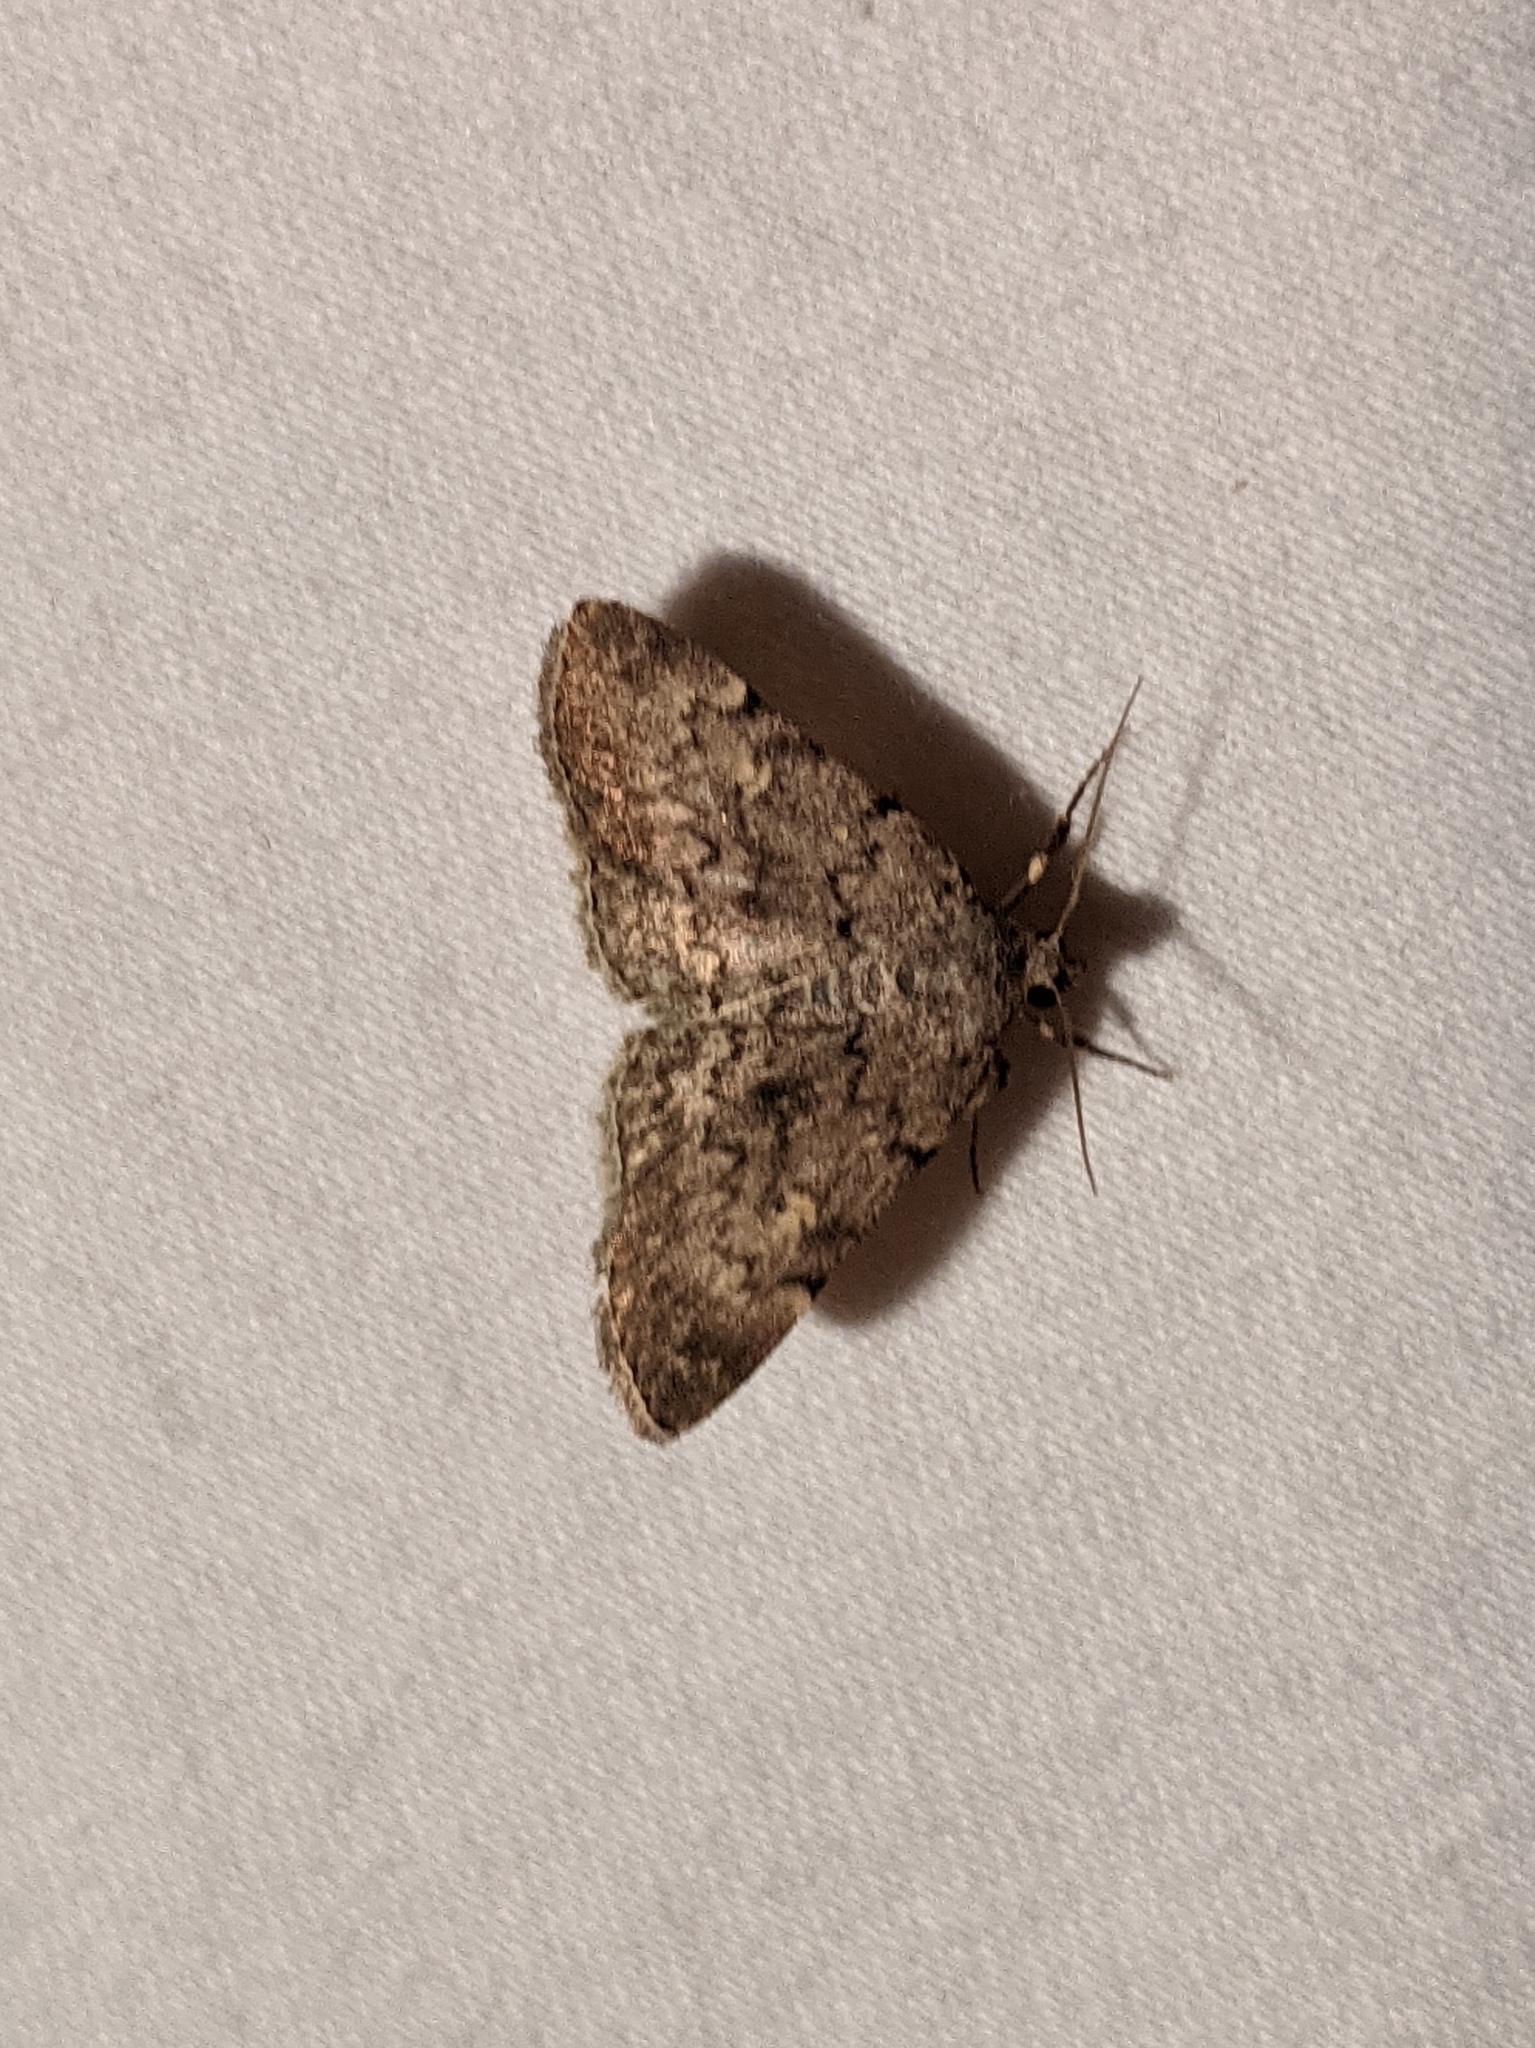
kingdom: Animalia
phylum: Arthropoda
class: Insecta
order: Lepidoptera
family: Erebidae
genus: Idia
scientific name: Idia aemula
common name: Common idia moth
